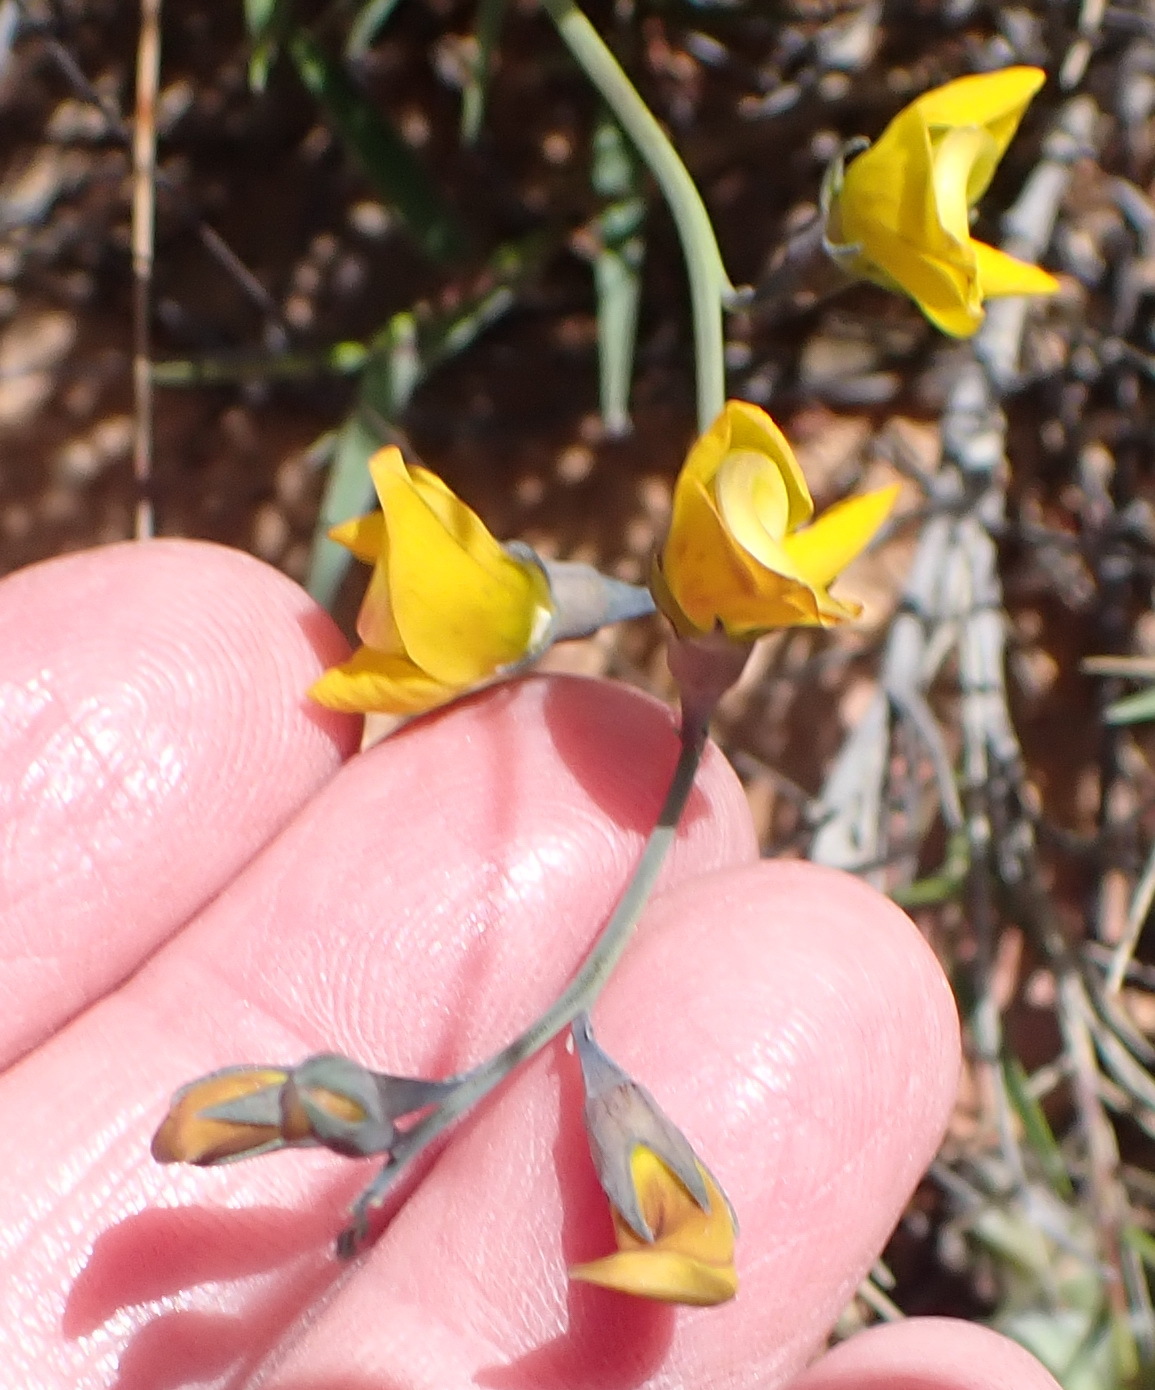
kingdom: Plantae
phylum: Tracheophyta
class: Magnoliopsida
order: Fabales
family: Fabaceae
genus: Lebeckia
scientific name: Lebeckia pauciflora
